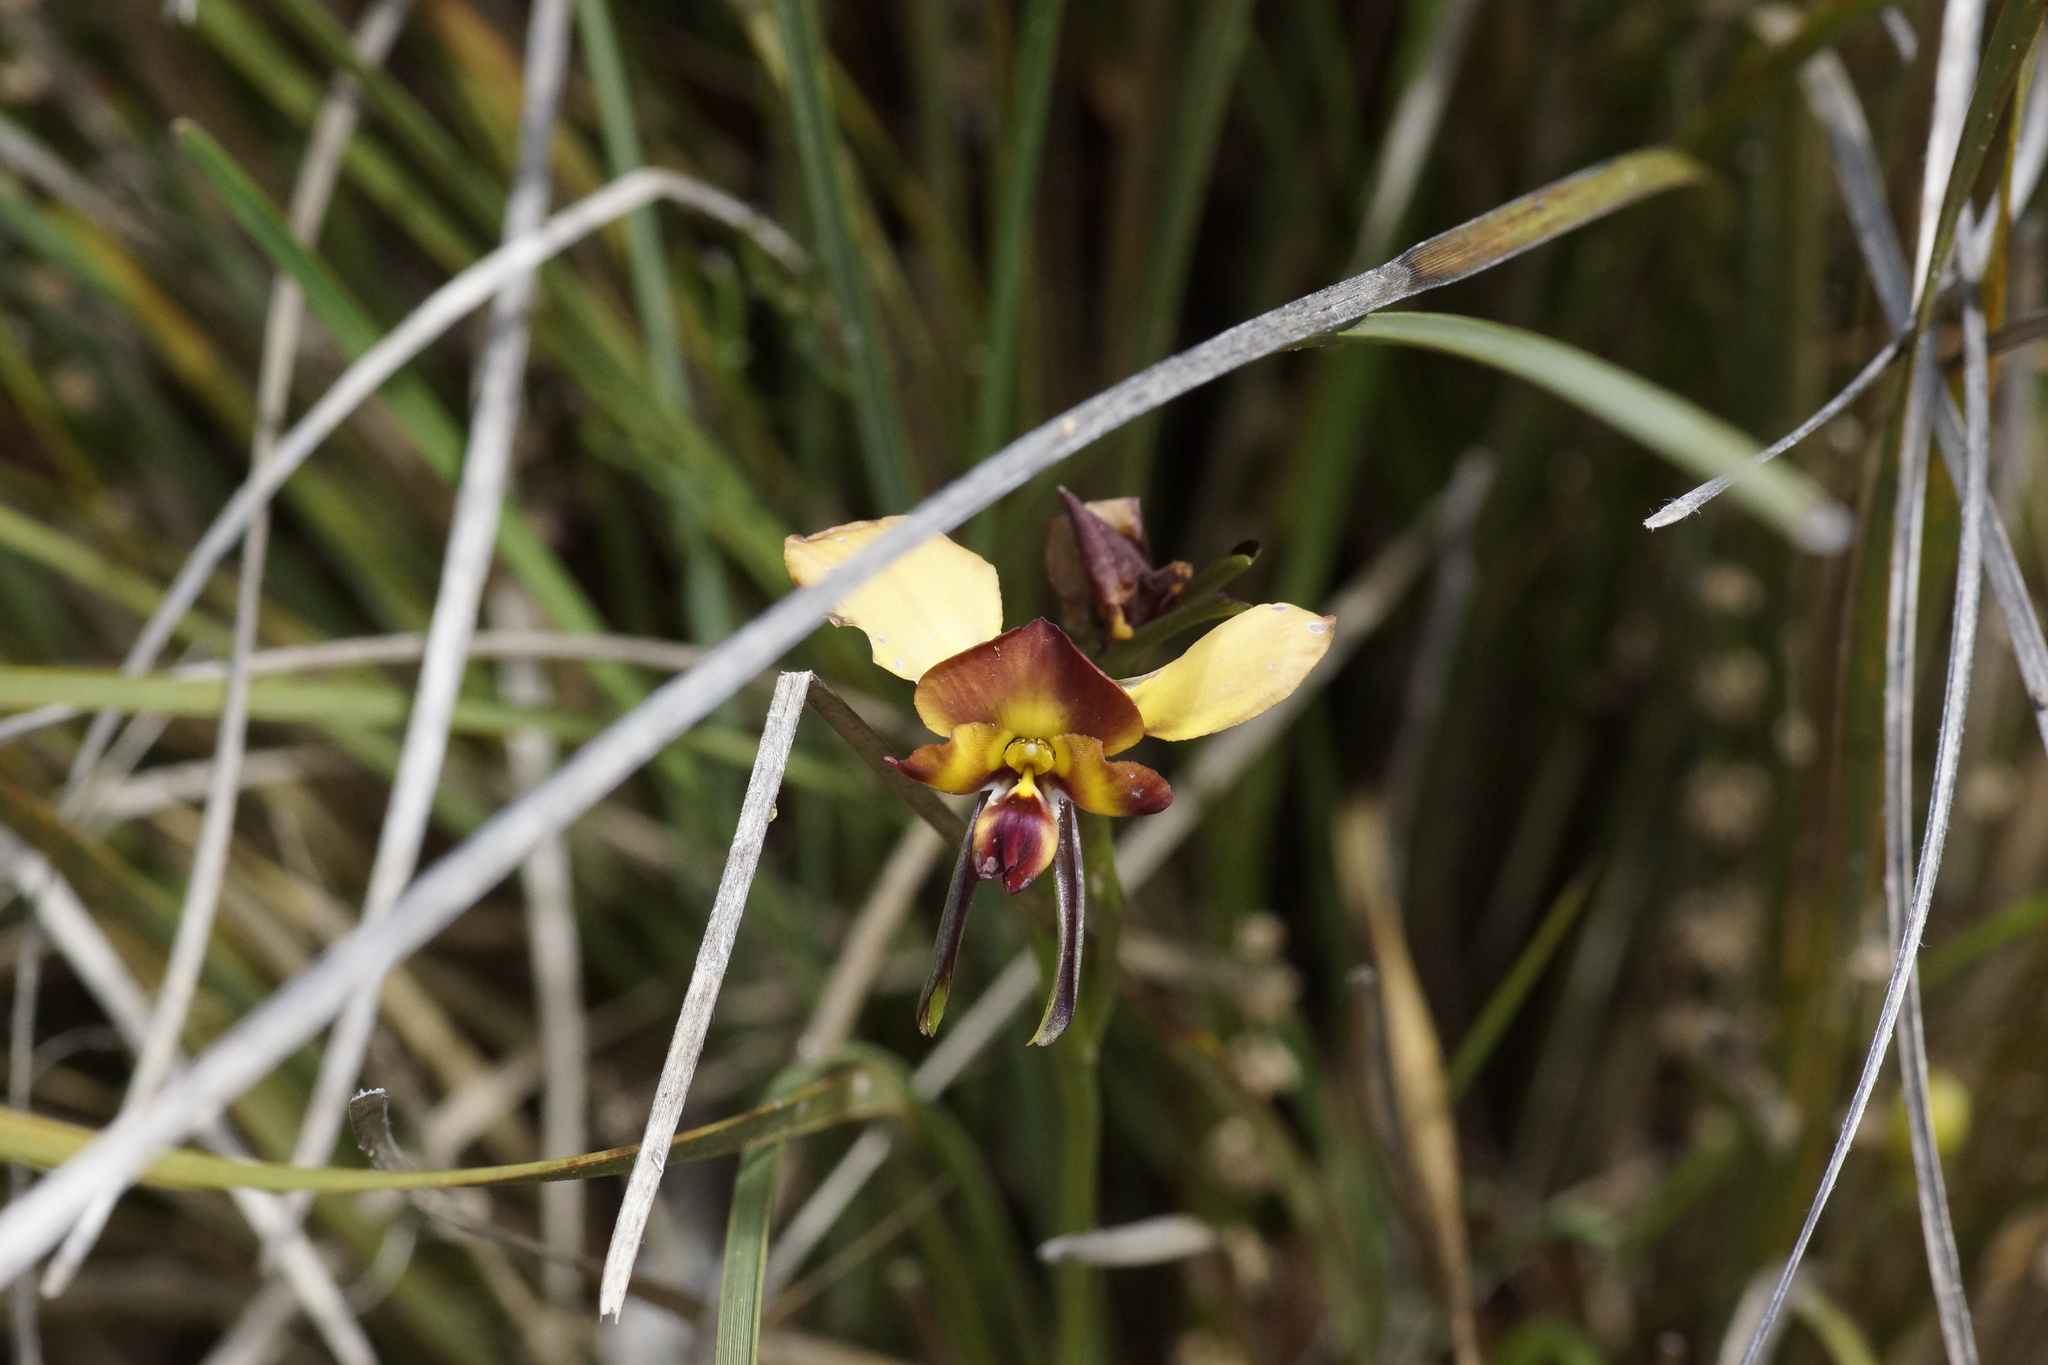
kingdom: Plantae
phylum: Tracheophyta
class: Liliopsida
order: Asparagales
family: Orchidaceae
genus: Diuris
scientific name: Diuris orientis
